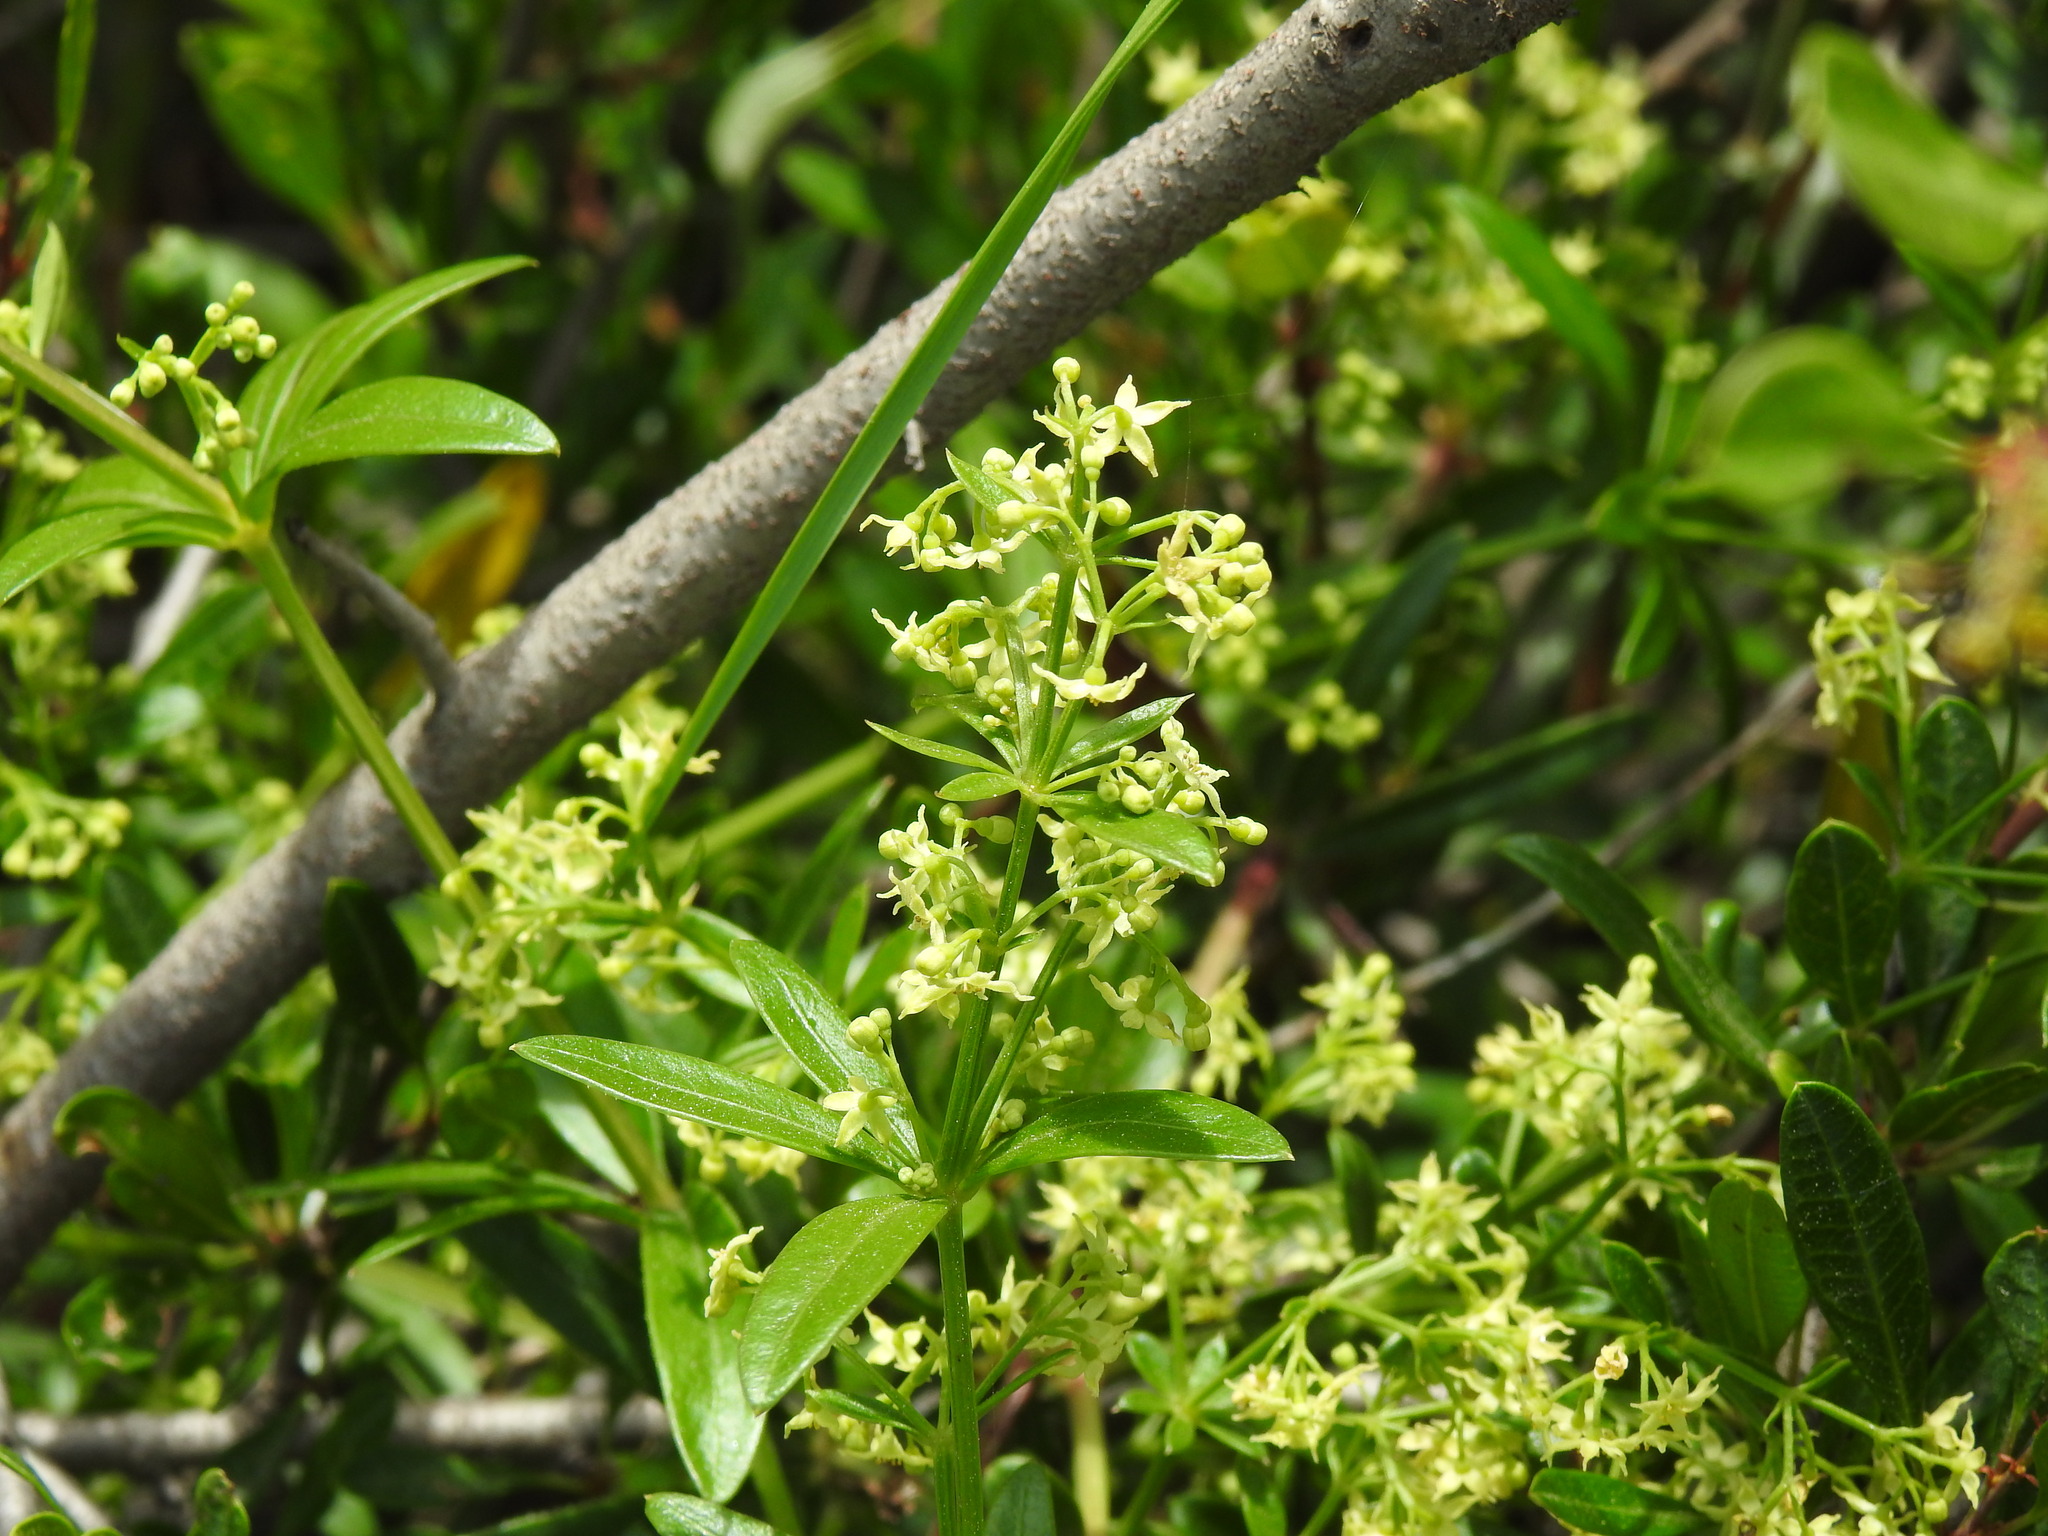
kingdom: Plantae
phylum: Tracheophyta
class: Magnoliopsida
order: Gentianales
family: Rubiaceae
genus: Rubia
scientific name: Rubia peregrina
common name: Wild madder
